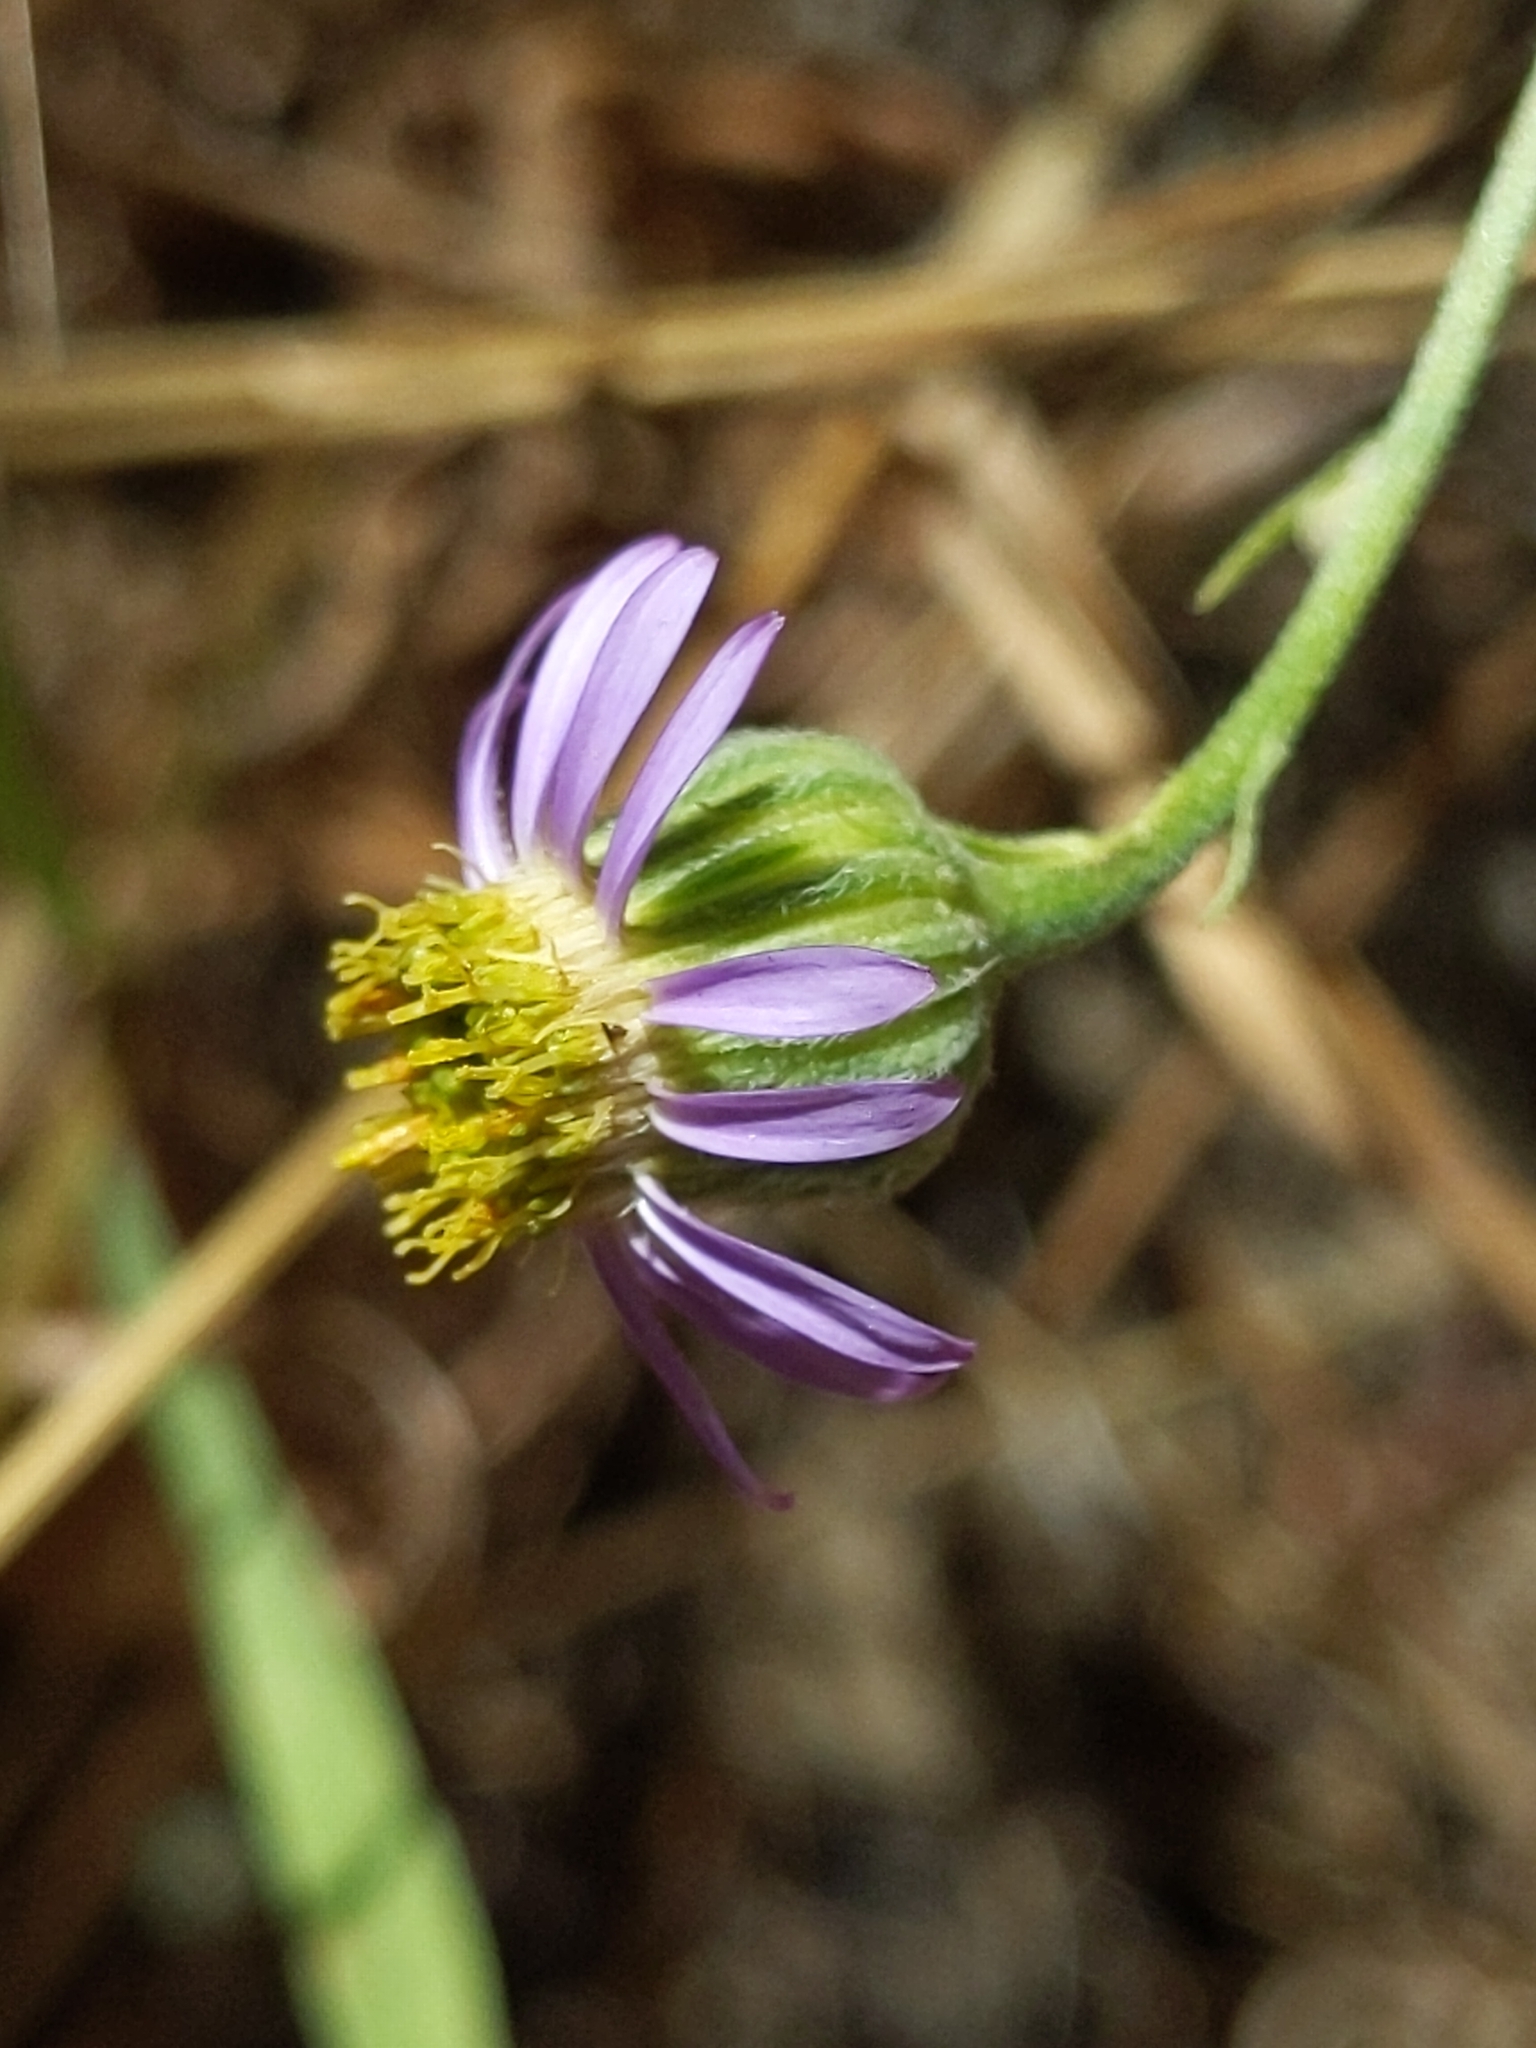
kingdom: Plantae
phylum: Tracheophyta
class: Magnoliopsida
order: Asterales
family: Asteraceae
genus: Erigeron
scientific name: Erigeron foliosus
